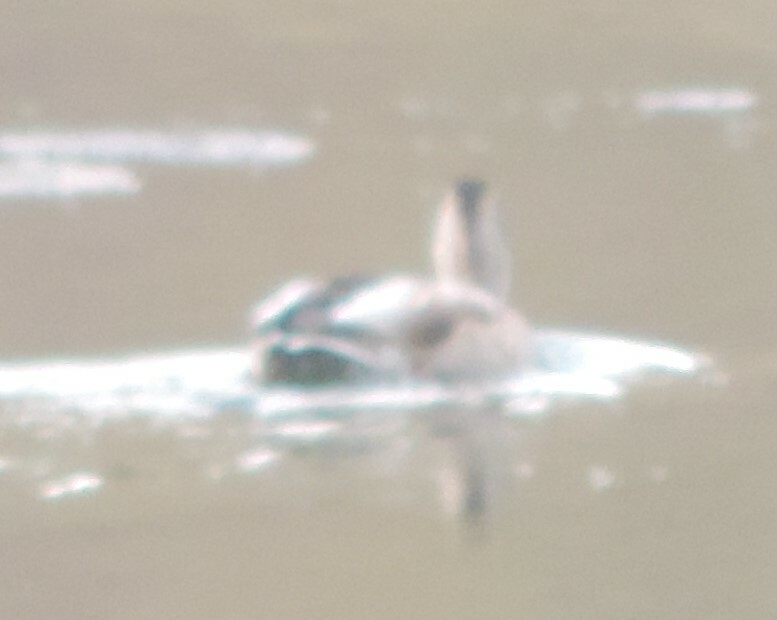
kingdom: Animalia
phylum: Chordata
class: Aves
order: Anseriformes
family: Anatidae
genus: Anas
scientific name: Anas platyrhynchos
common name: Mallard
